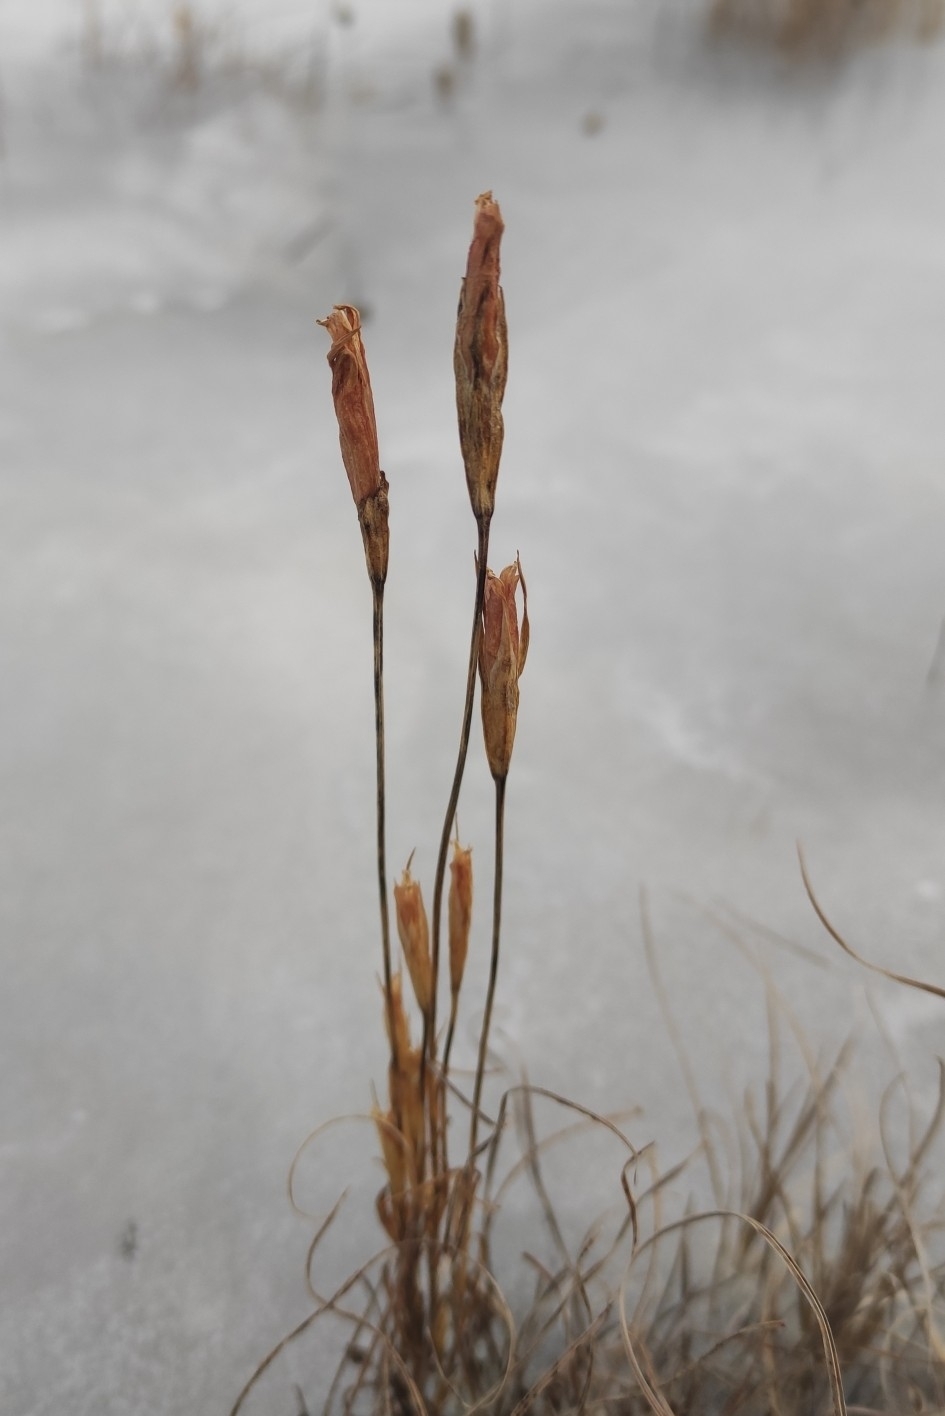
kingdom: Plantae
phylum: Tracheophyta
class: Magnoliopsida
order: Gentianales
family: Gentianaceae
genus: Gentianopsis
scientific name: Gentianopsis barbata
